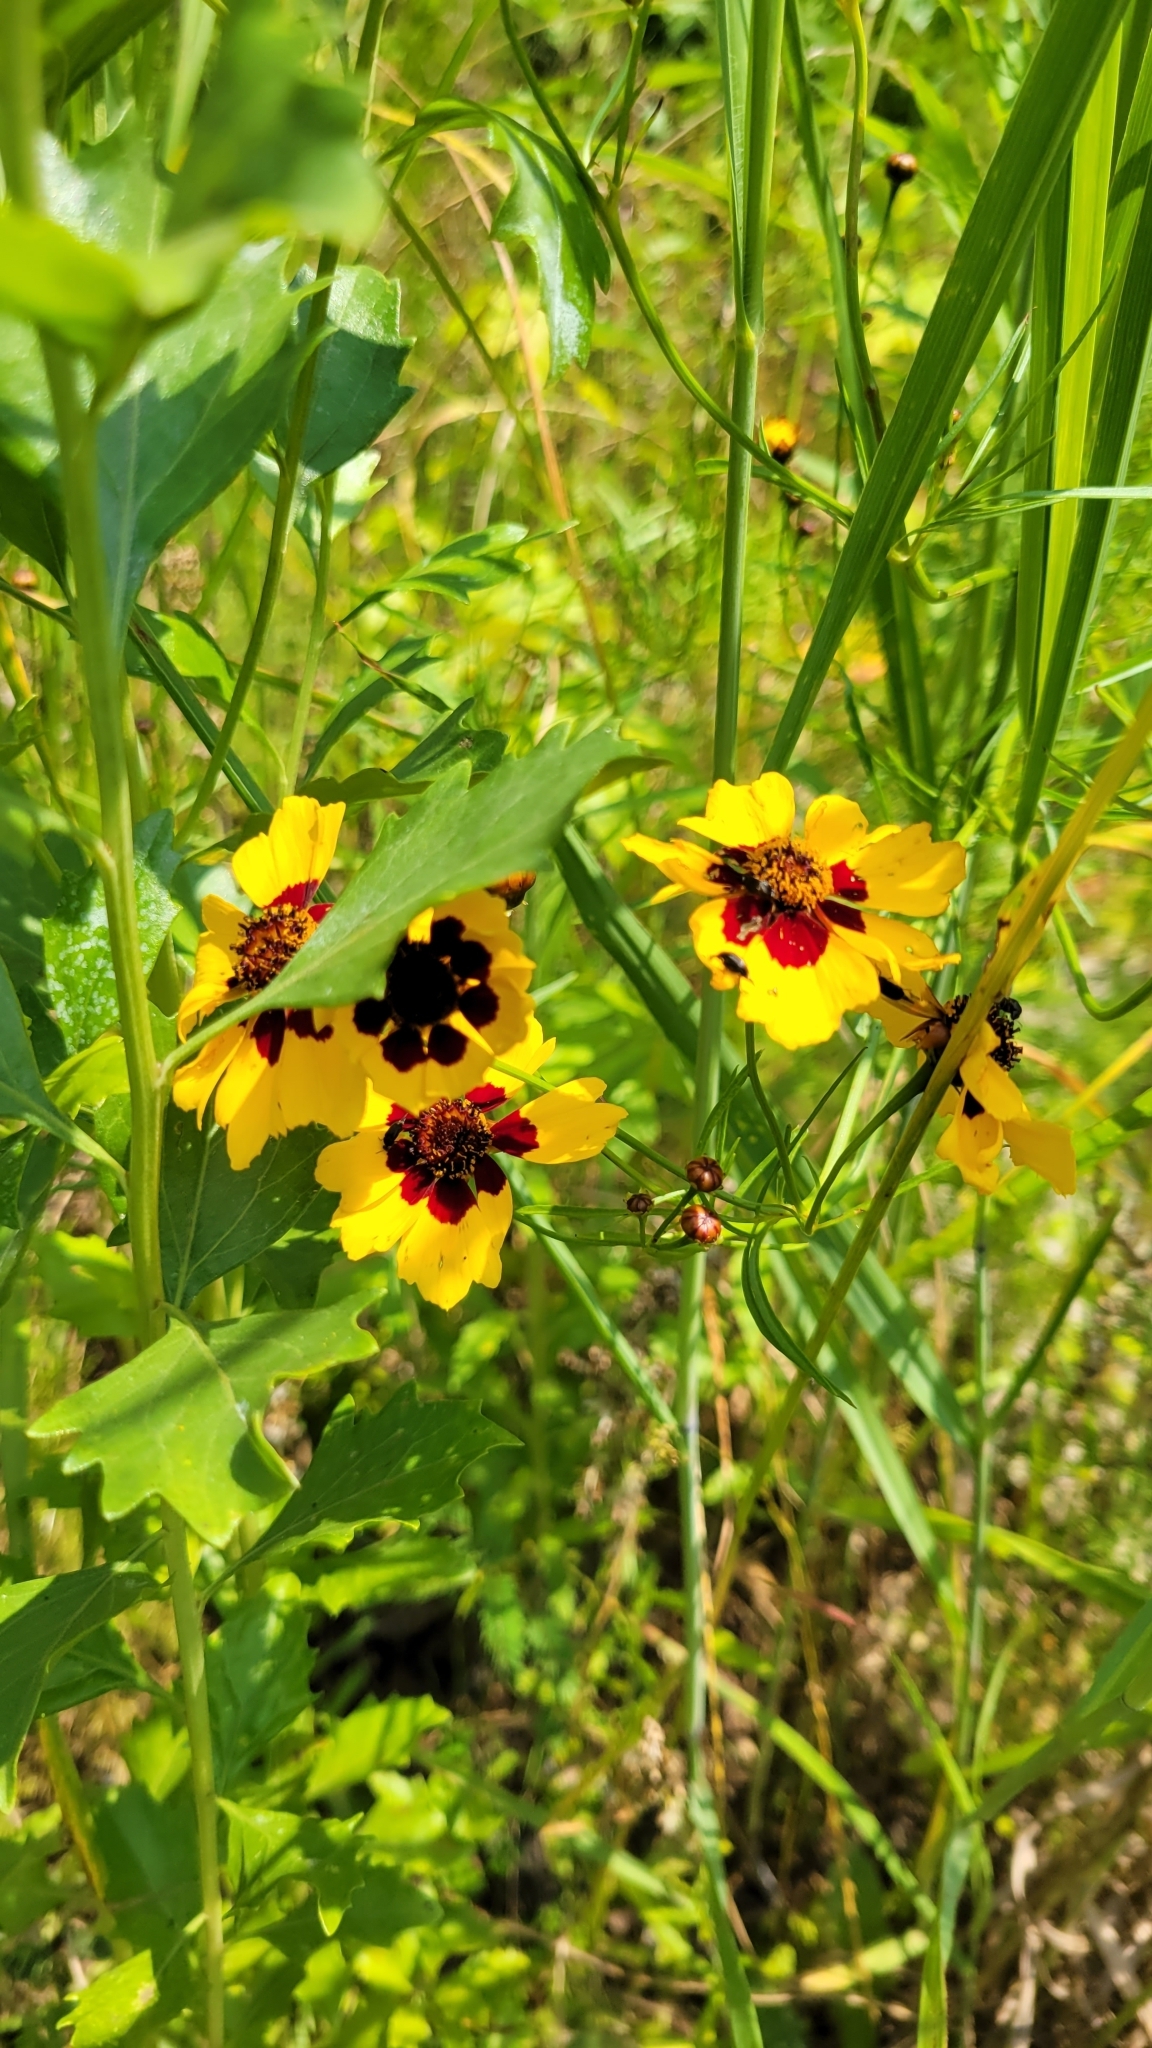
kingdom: Plantae
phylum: Tracheophyta
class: Magnoliopsida
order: Asterales
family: Asteraceae
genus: Coreopsis
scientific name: Coreopsis tinctoria
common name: Garden tickseed
